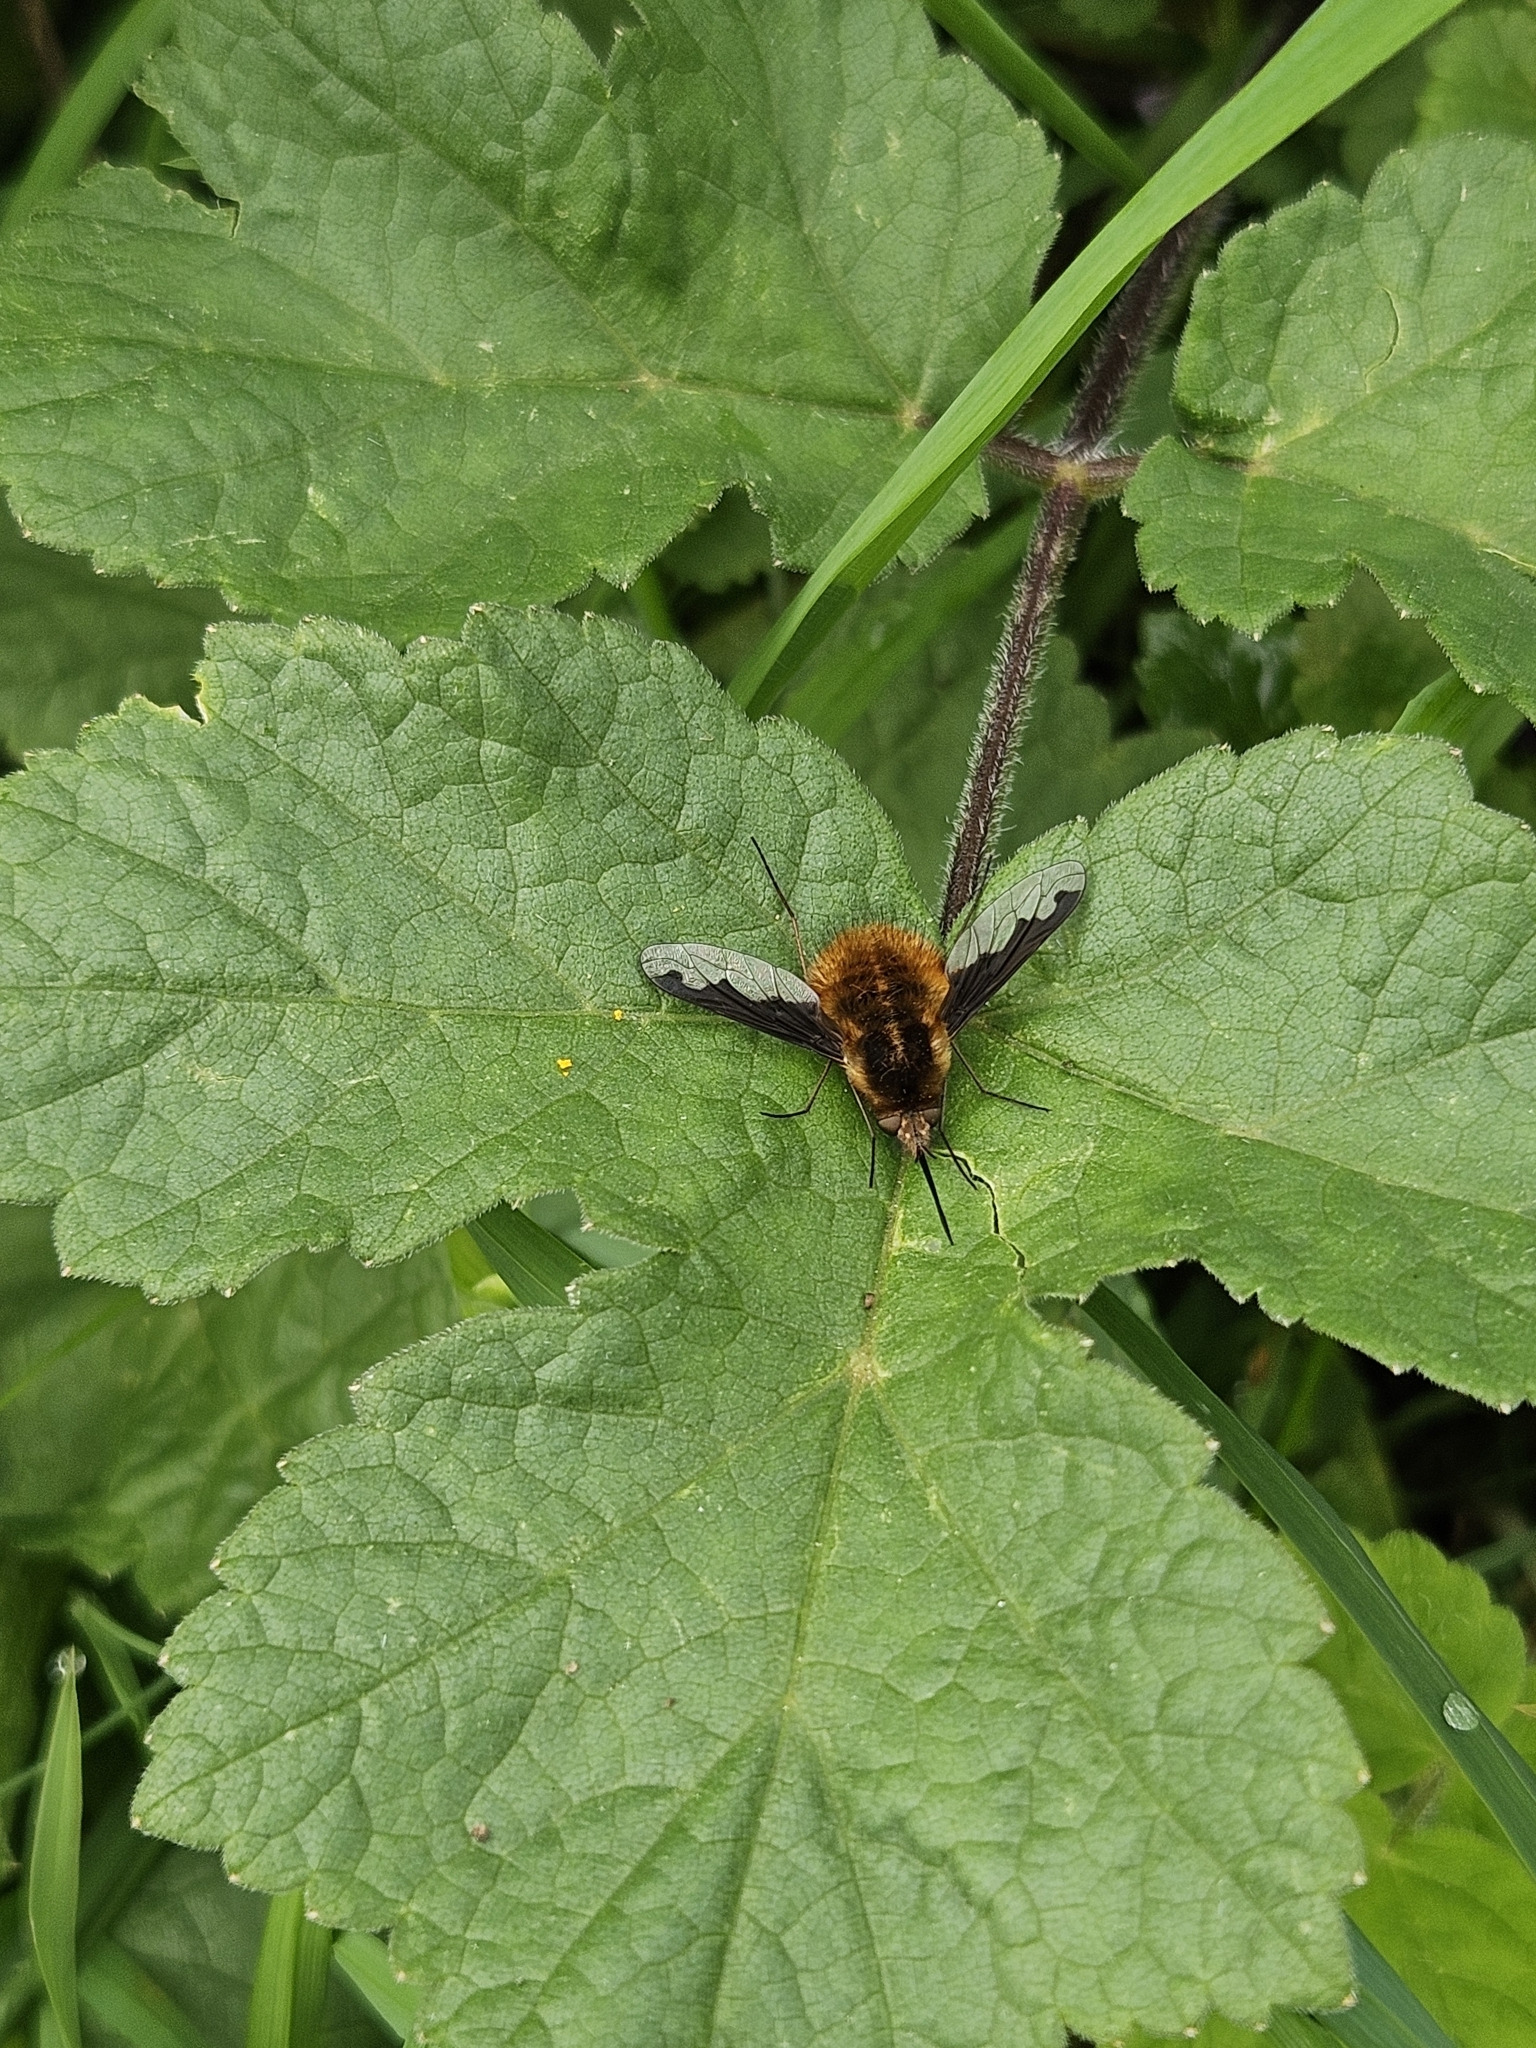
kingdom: Animalia
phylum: Arthropoda
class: Insecta
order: Diptera
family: Bombyliidae
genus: Bombylius
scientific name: Bombylius major
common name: Bee fly
